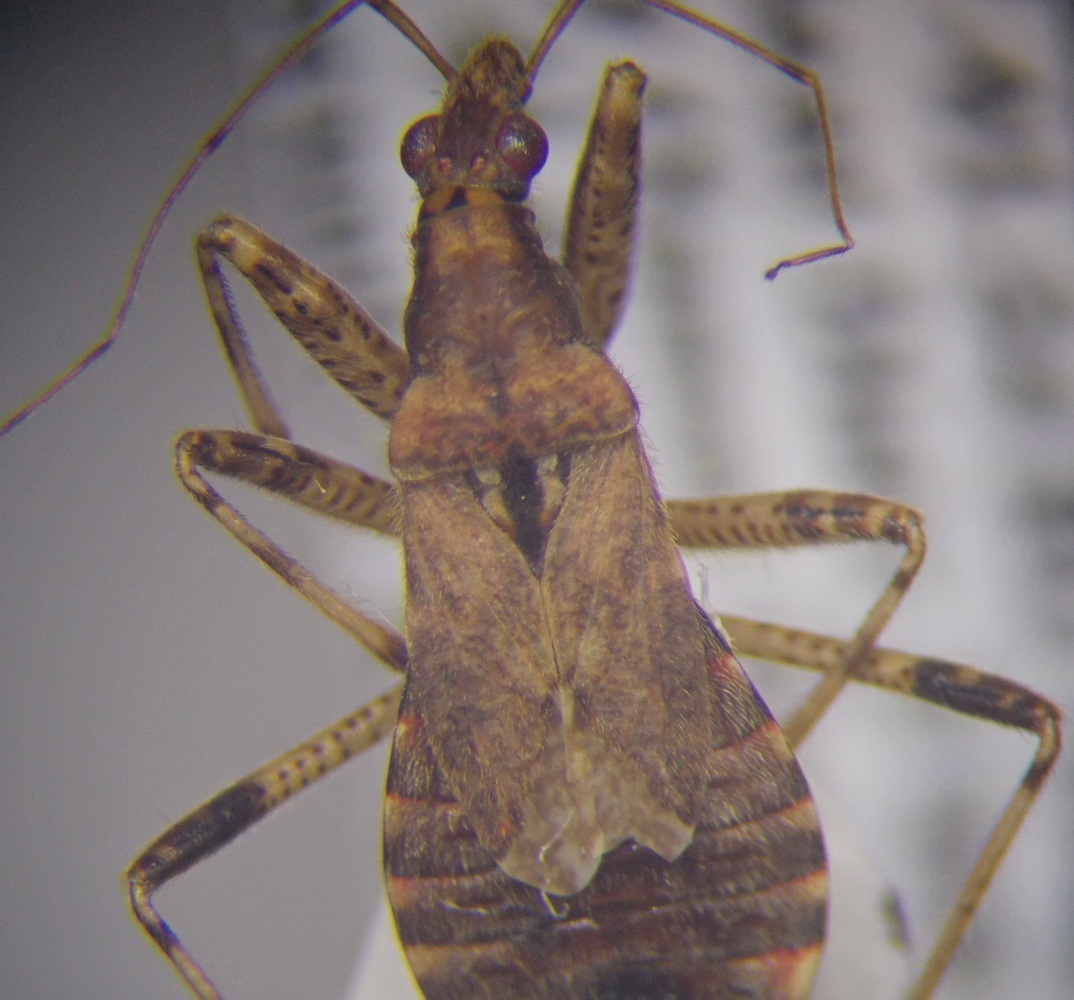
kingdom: Animalia
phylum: Arthropoda
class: Insecta
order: Hemiptera
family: Nabidae
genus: Himacerus
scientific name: Himacerus mirmicoides
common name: Ant damsel bug
